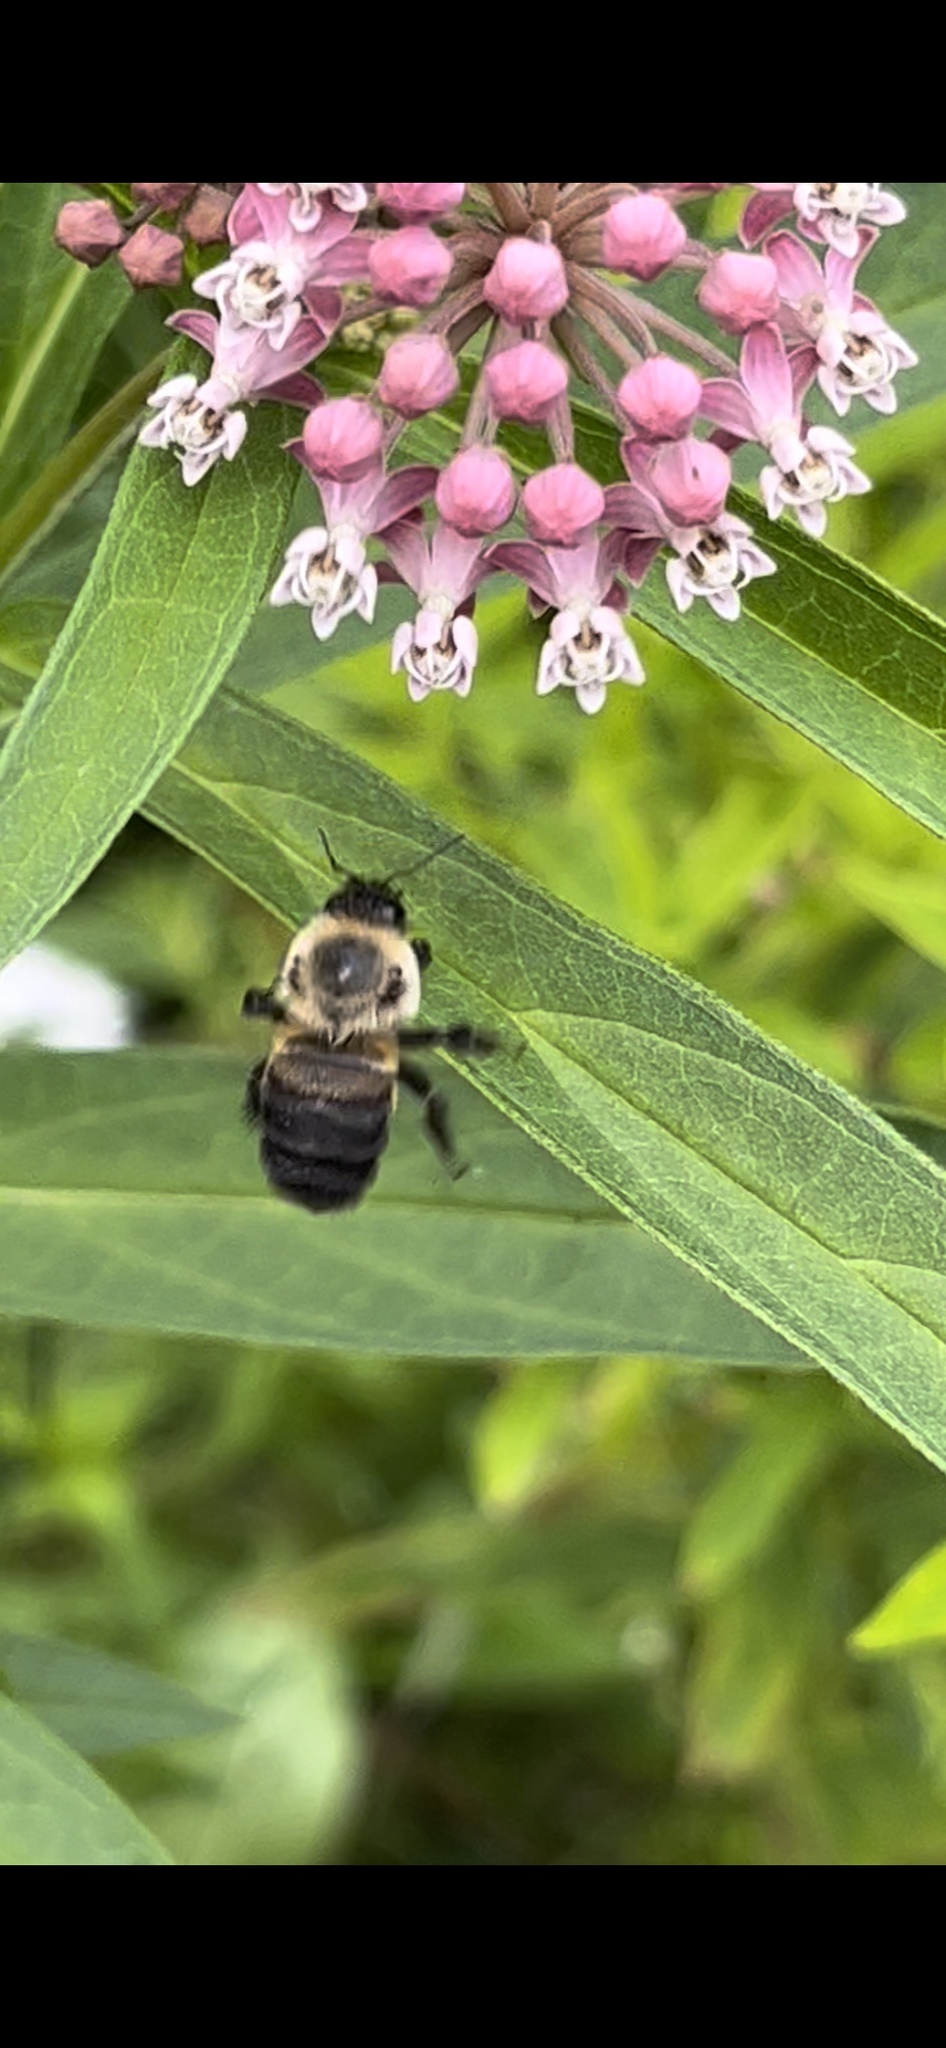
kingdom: Animalia
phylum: Arthropoda
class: Insecta
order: Hymenoptera
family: Apidae
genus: Bombus
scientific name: Bombus griseocollis
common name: Brown-belted bumble bee
